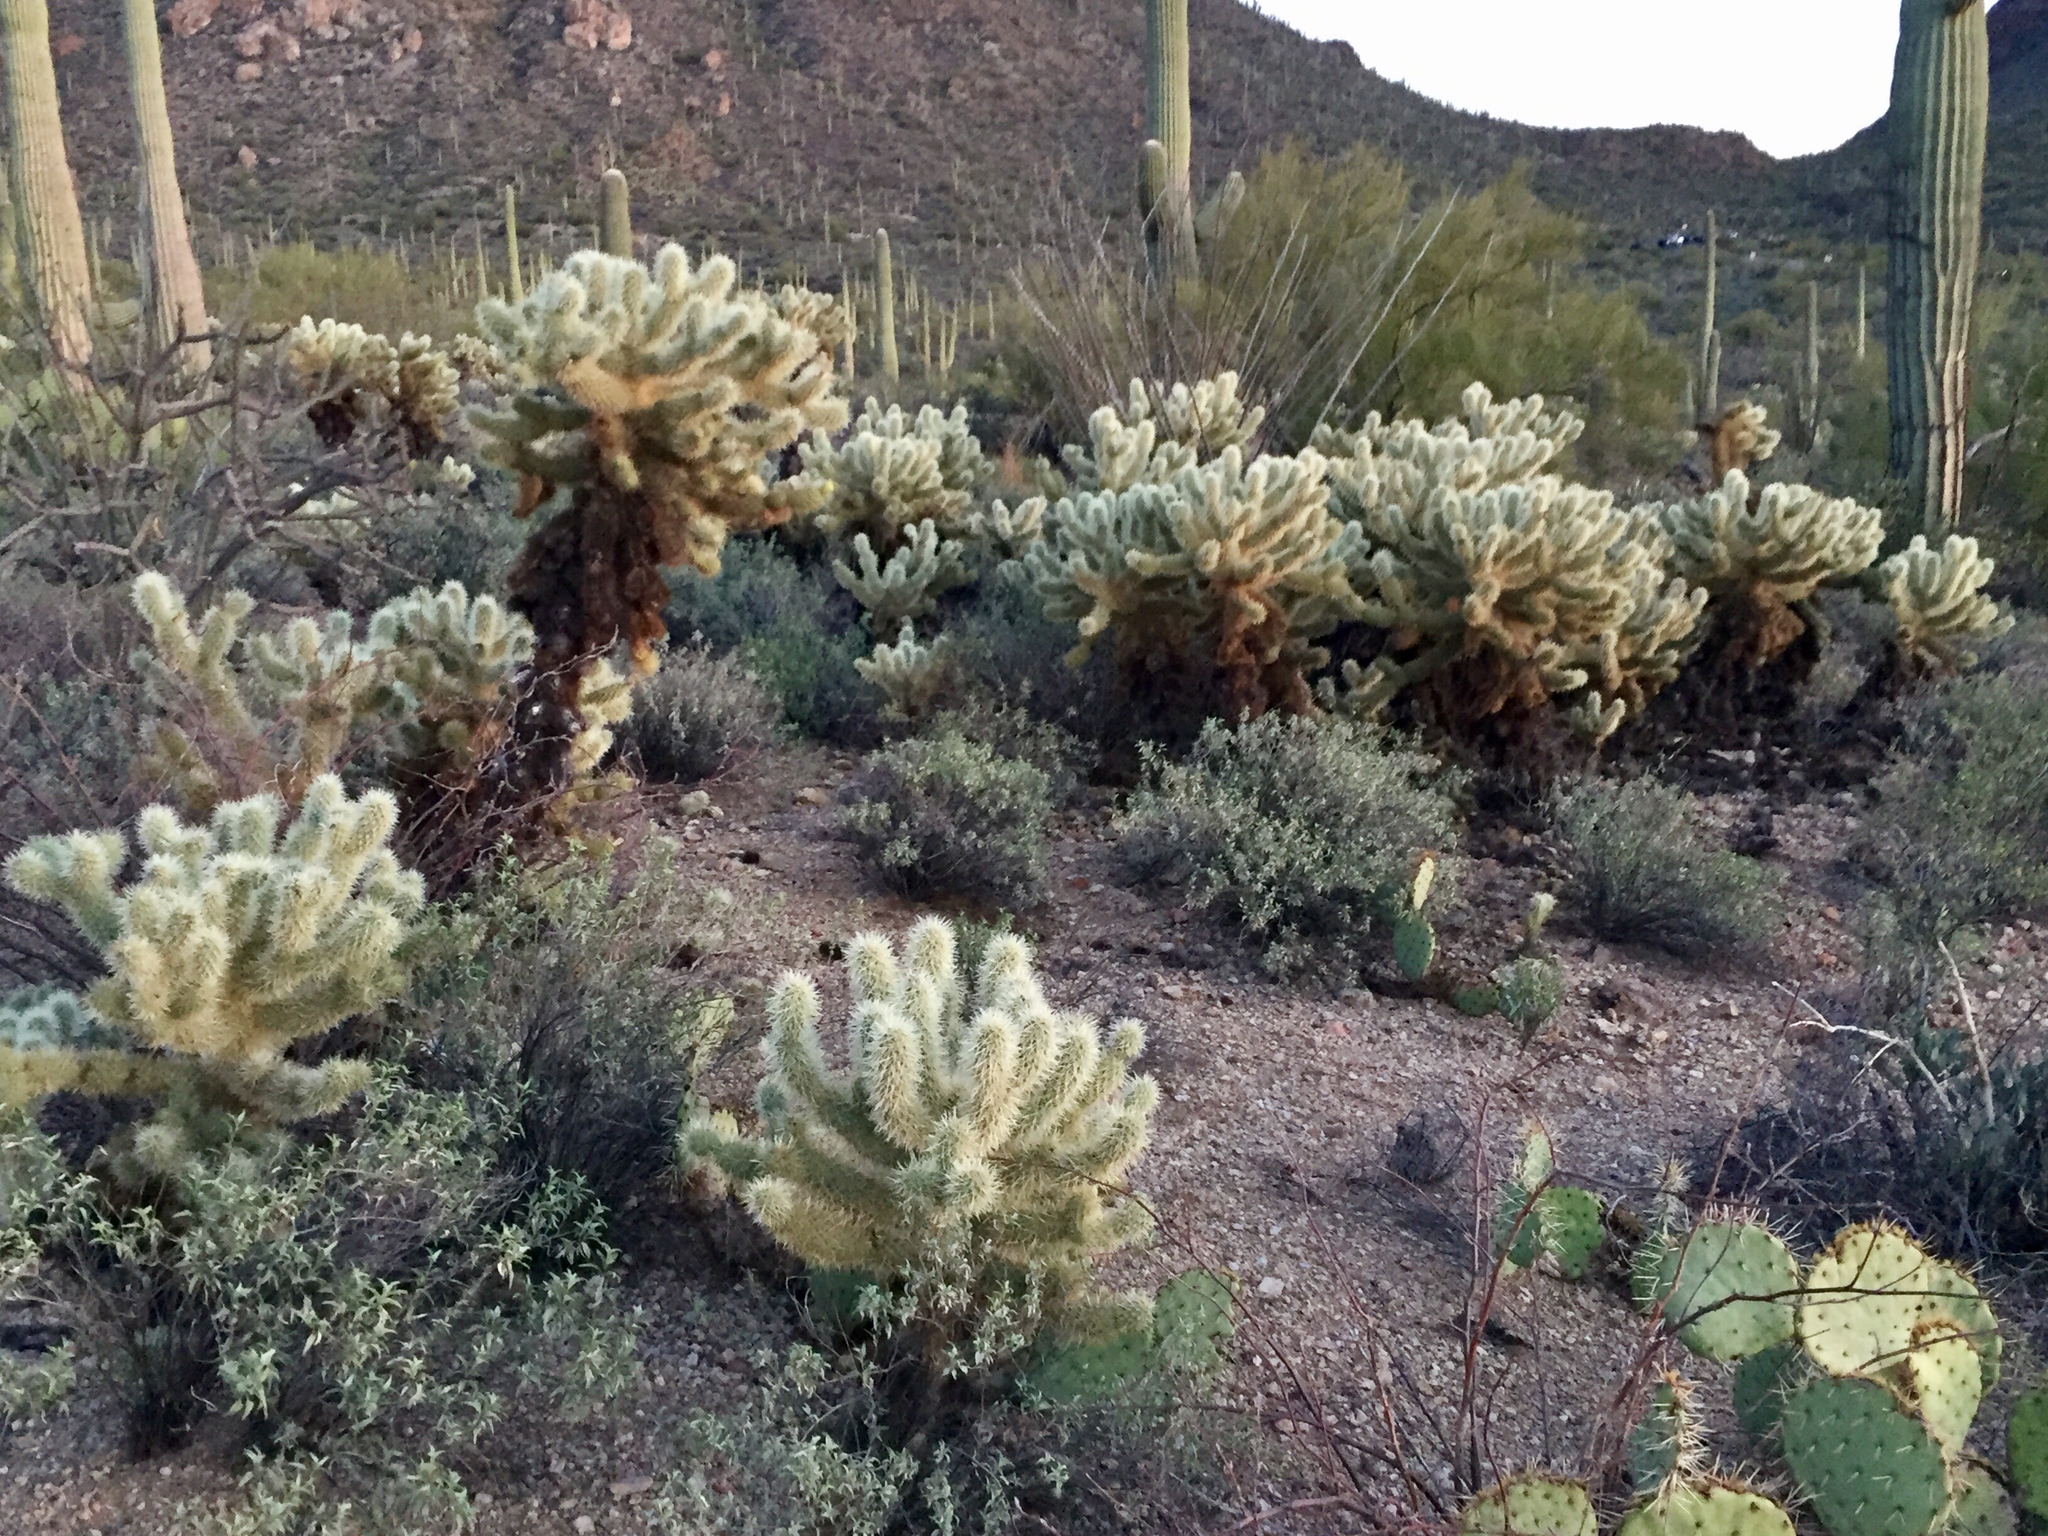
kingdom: Plantae
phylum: Tracheophyta
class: Magnoliopsida
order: Caryophyllales
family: Cactaceae
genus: Cylindropuntia
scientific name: Cylindropuntia fosbergii
